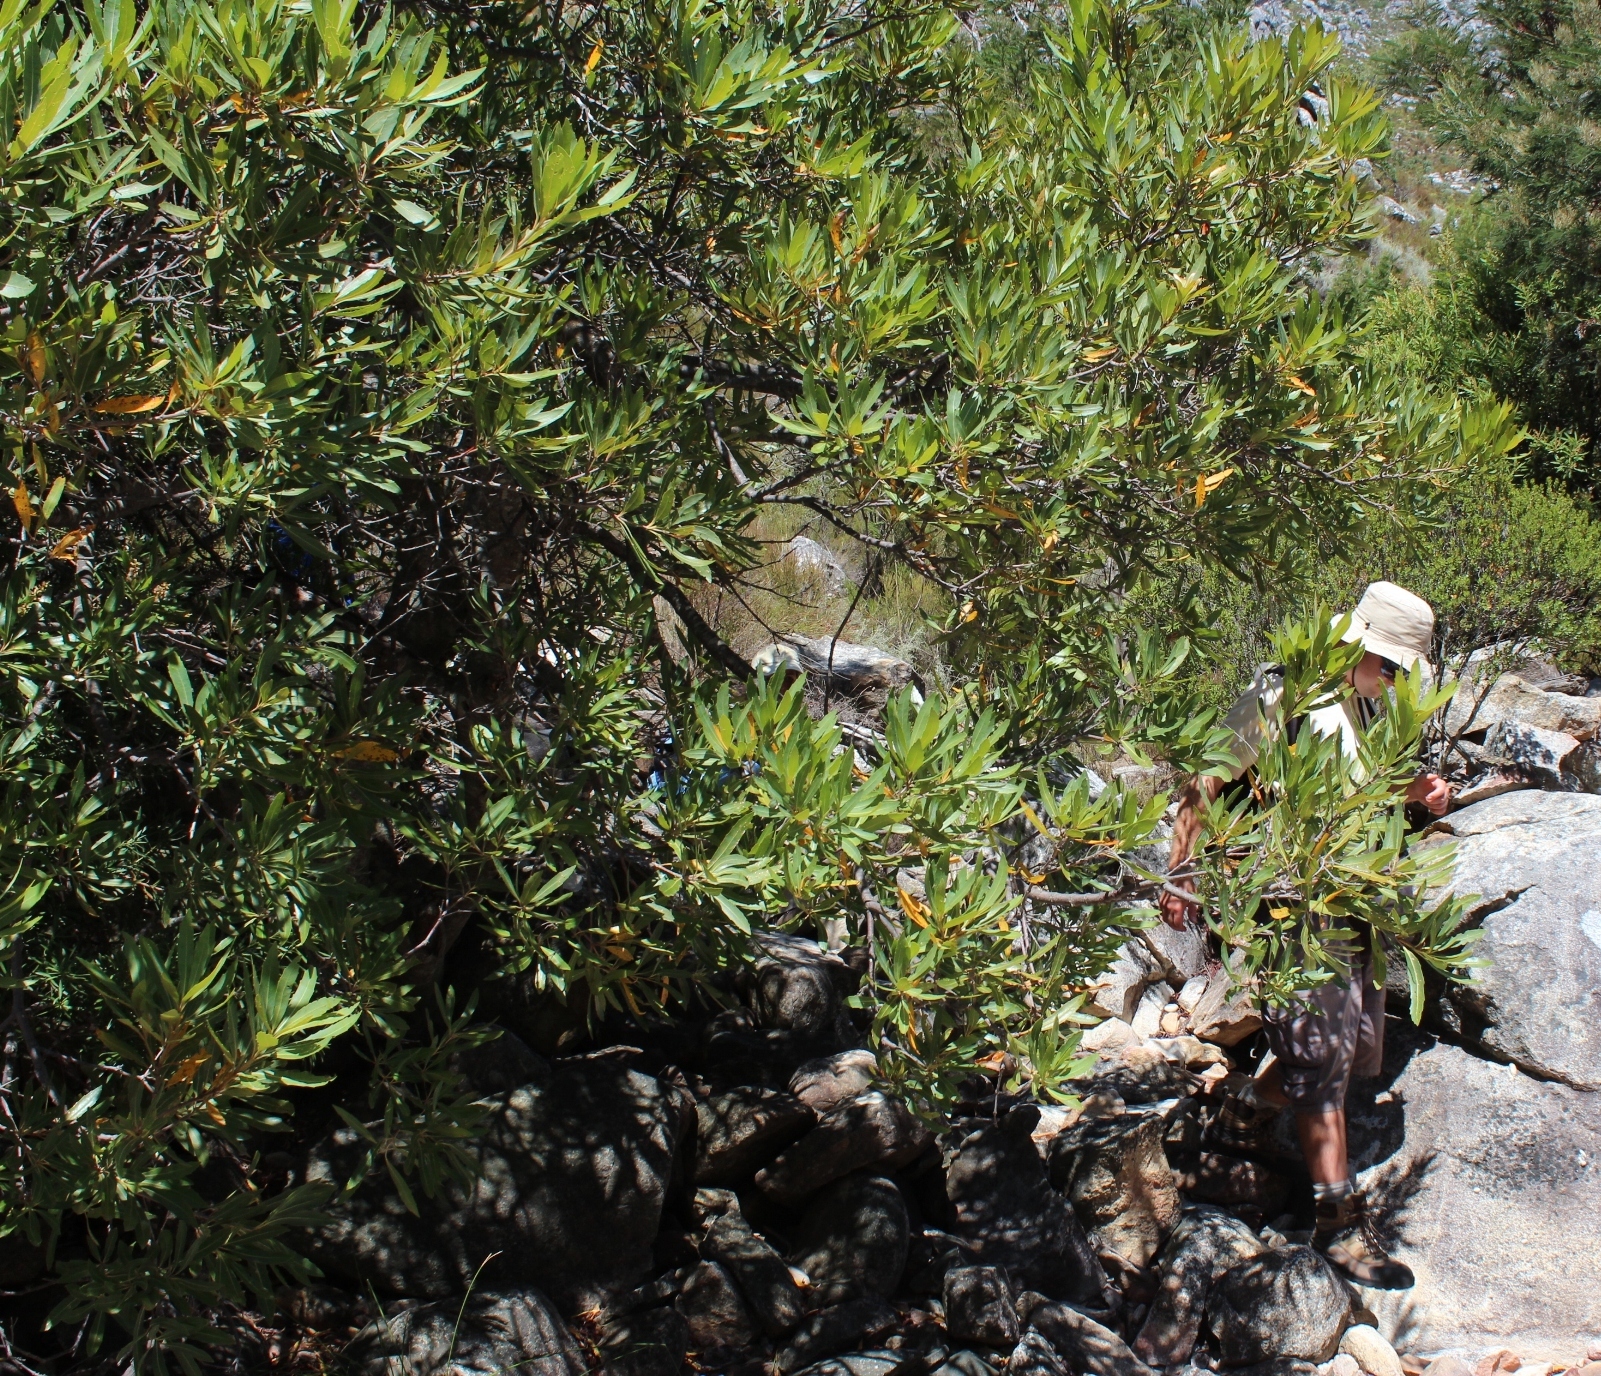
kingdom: Plantae
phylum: Tracheophyta
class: Magnoliopsida
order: Proteales
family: Proteaceae
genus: Brabejum
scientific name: Brabejum stellatifolium
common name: Wild almond
